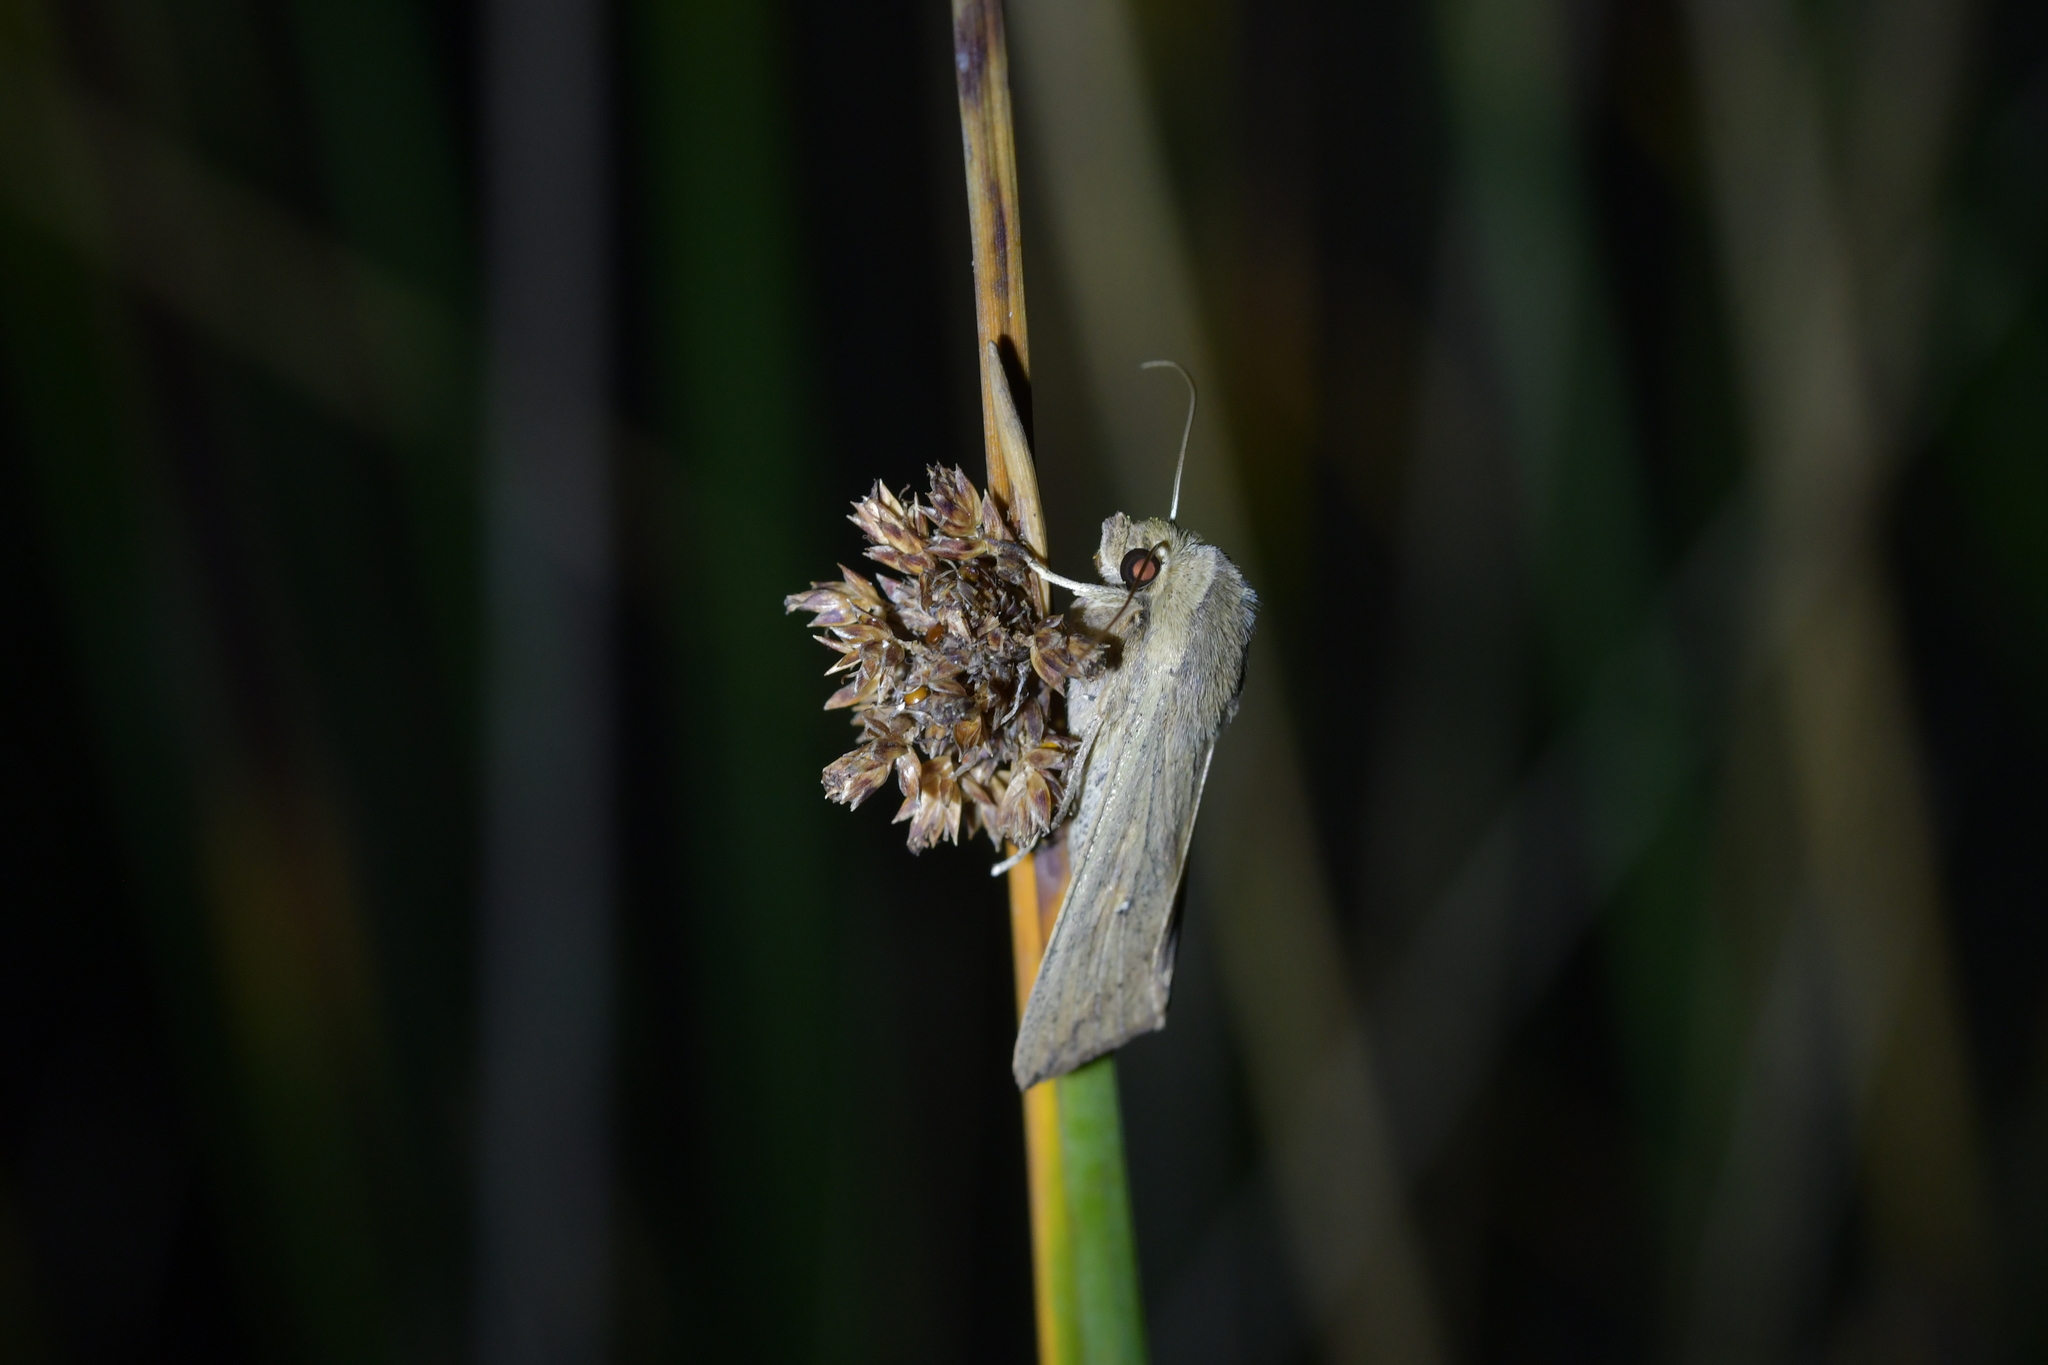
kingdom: Animalia
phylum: Arthropoda
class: Insecta
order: Lepidoptera
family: Noctuidae
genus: Mythimna
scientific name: Mythimna separata
